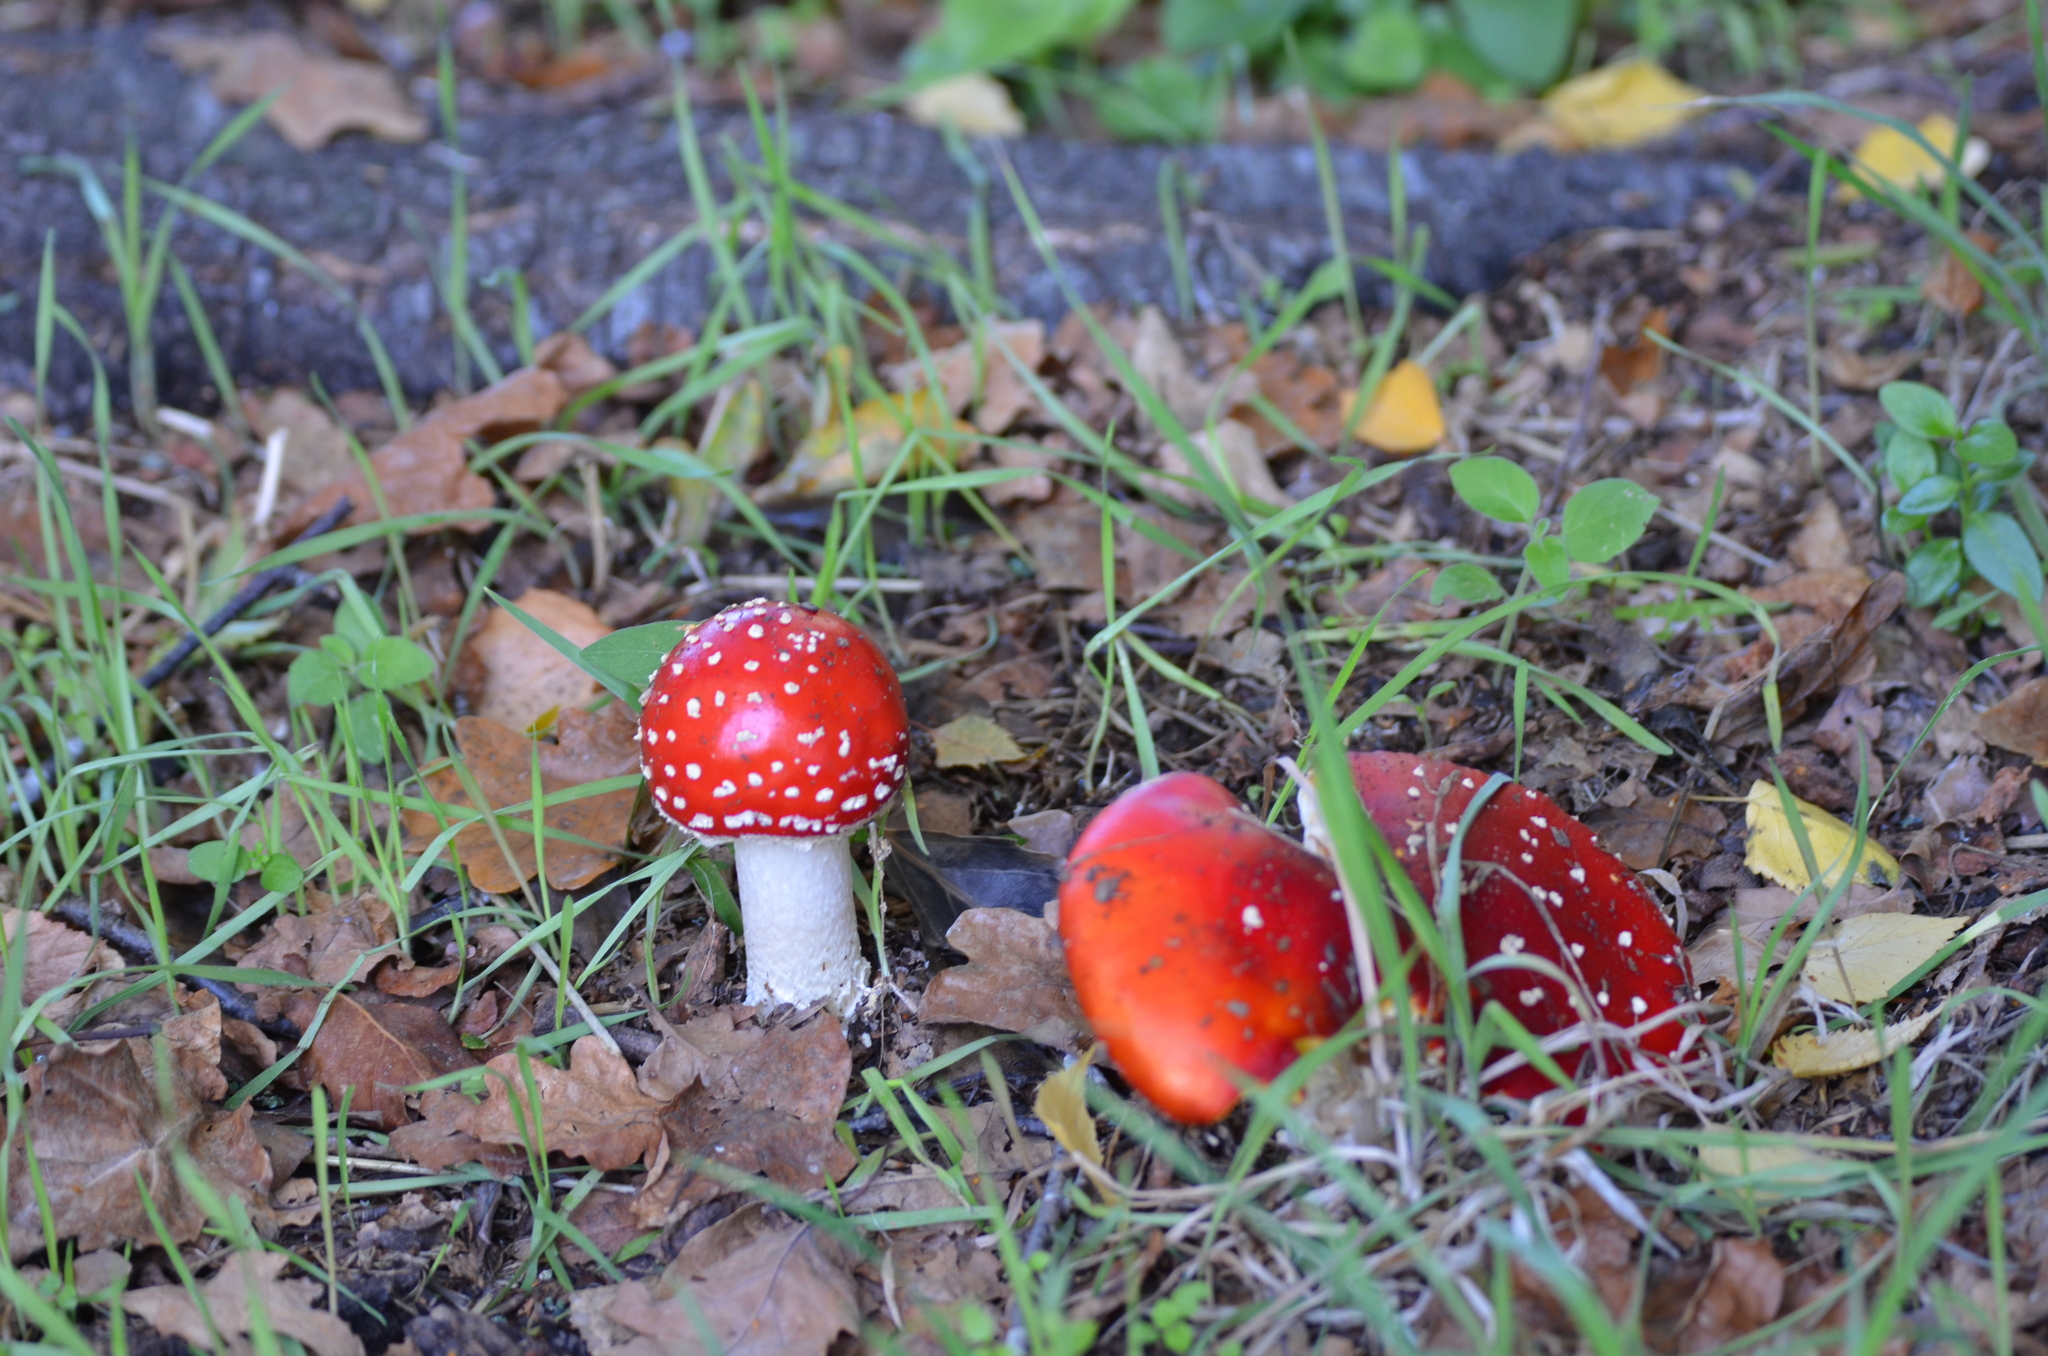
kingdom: Fungi
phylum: Basidiomycota
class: Agaricomycetes
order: Agaricales
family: Amanitaceae
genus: Amanita
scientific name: Amanita muscaria
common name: Fly agaric
